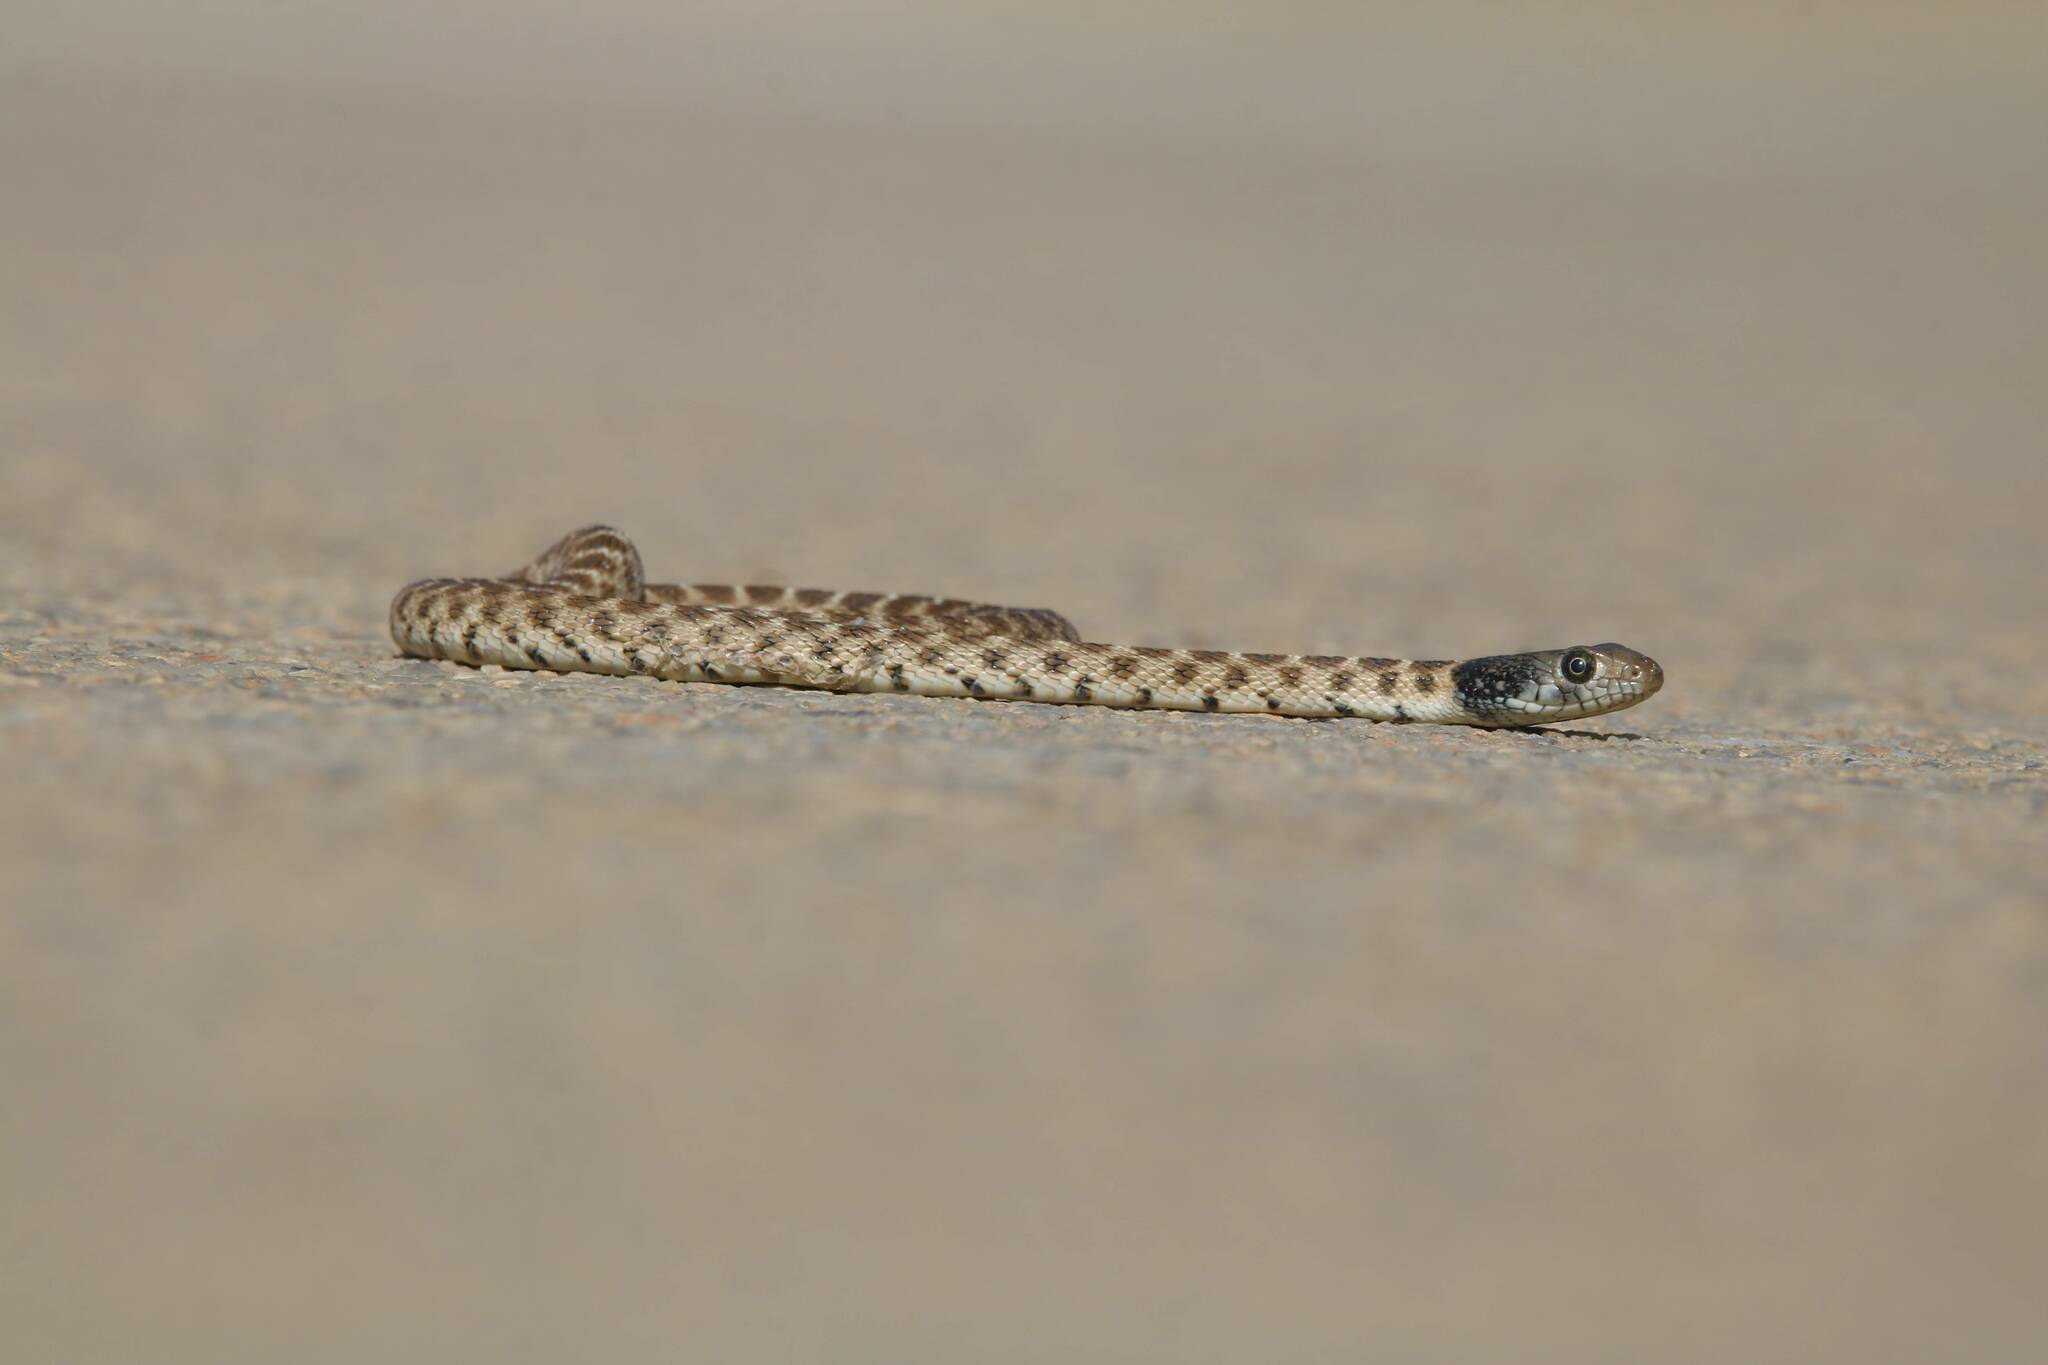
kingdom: Animalia
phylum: Chordata
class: Squamata
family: Colubridae
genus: Hemorrhois
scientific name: Hemorrhois algirus
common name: Algerian whip snake
